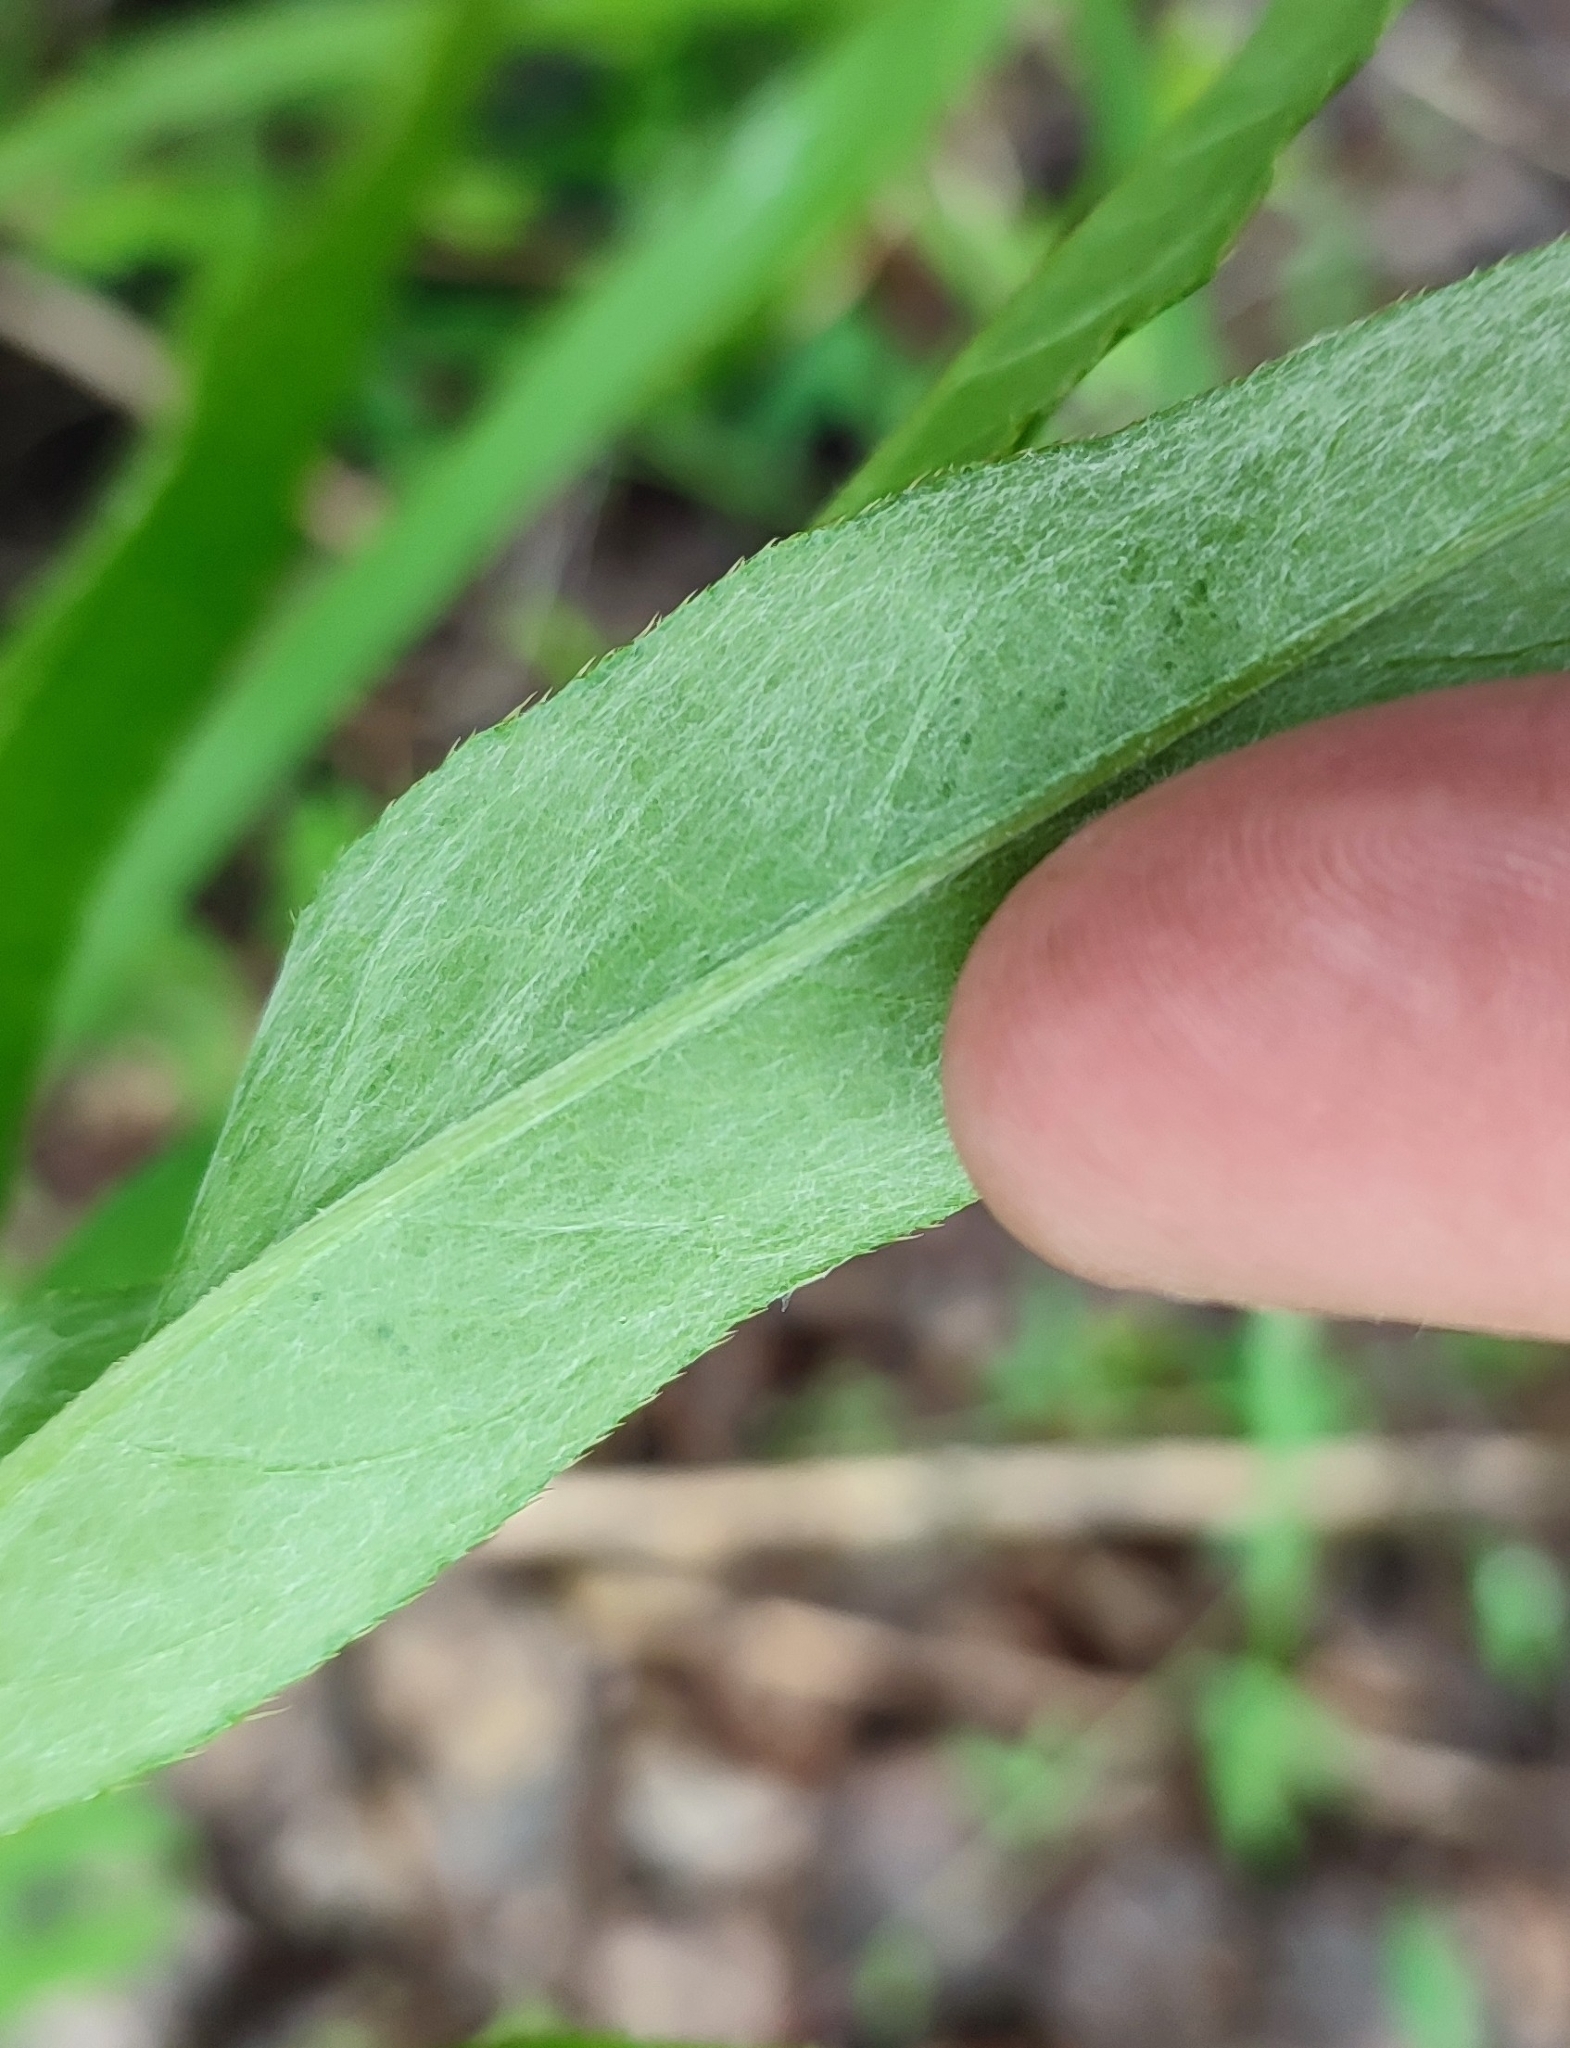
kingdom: Plantae
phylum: Tracheophyta
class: Magnoliopsida
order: Asterales
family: Asteraceae
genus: Cirsium
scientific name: Cirsium arvense
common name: Creeping thistle
